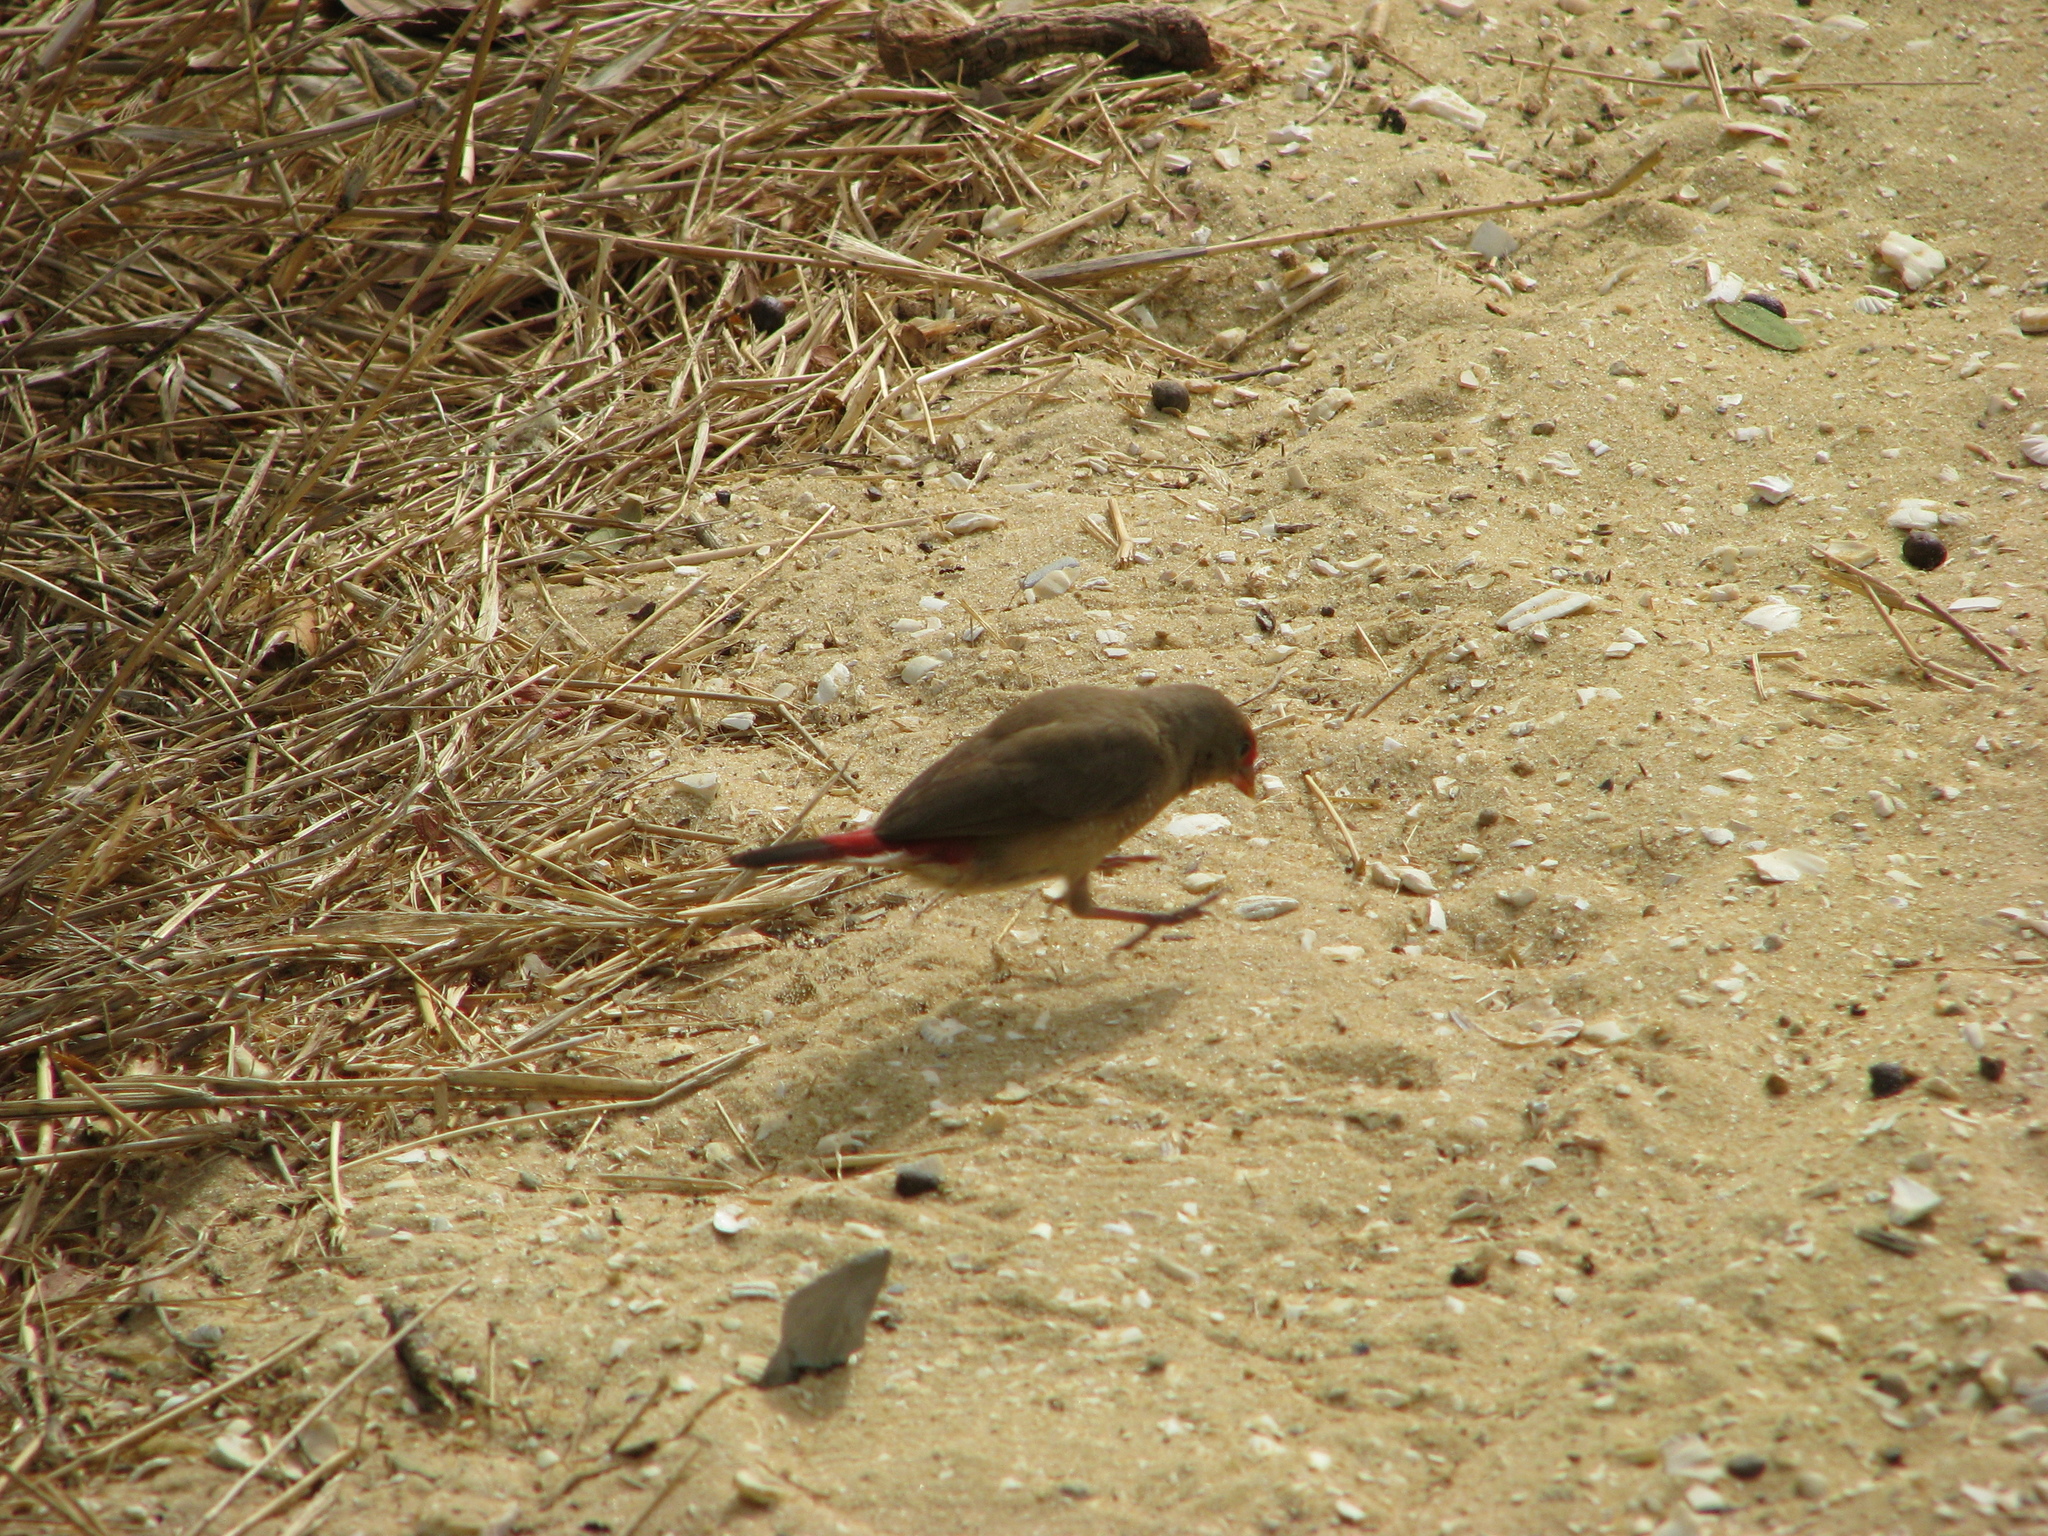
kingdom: Animalia
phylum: Chordata
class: Aves
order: Passeriformes
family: Estrildidae
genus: Lagonosticta
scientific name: Lagonosticta senegala
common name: Red-billed firefinch
